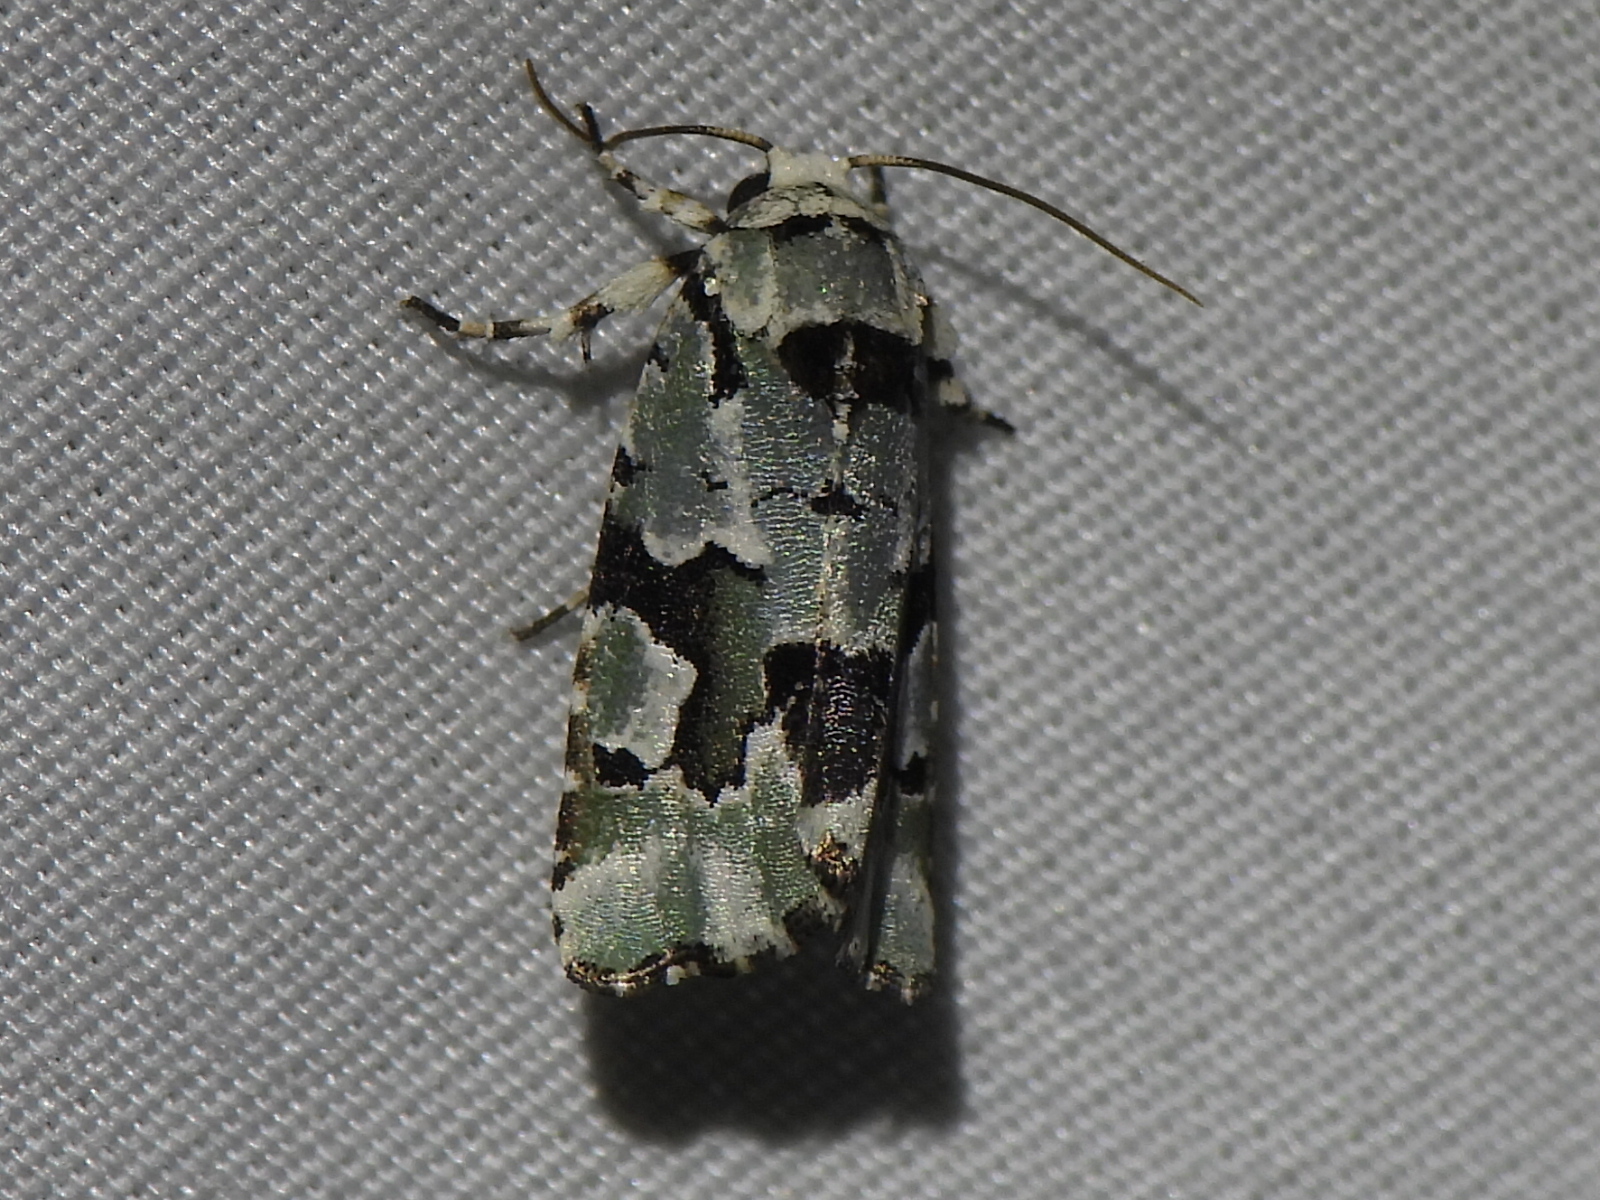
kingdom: Animalia
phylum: Arthropoda
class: Insecta
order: Lepidoptera
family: Noctuidae
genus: Emarginea
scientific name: Emarginea percara
